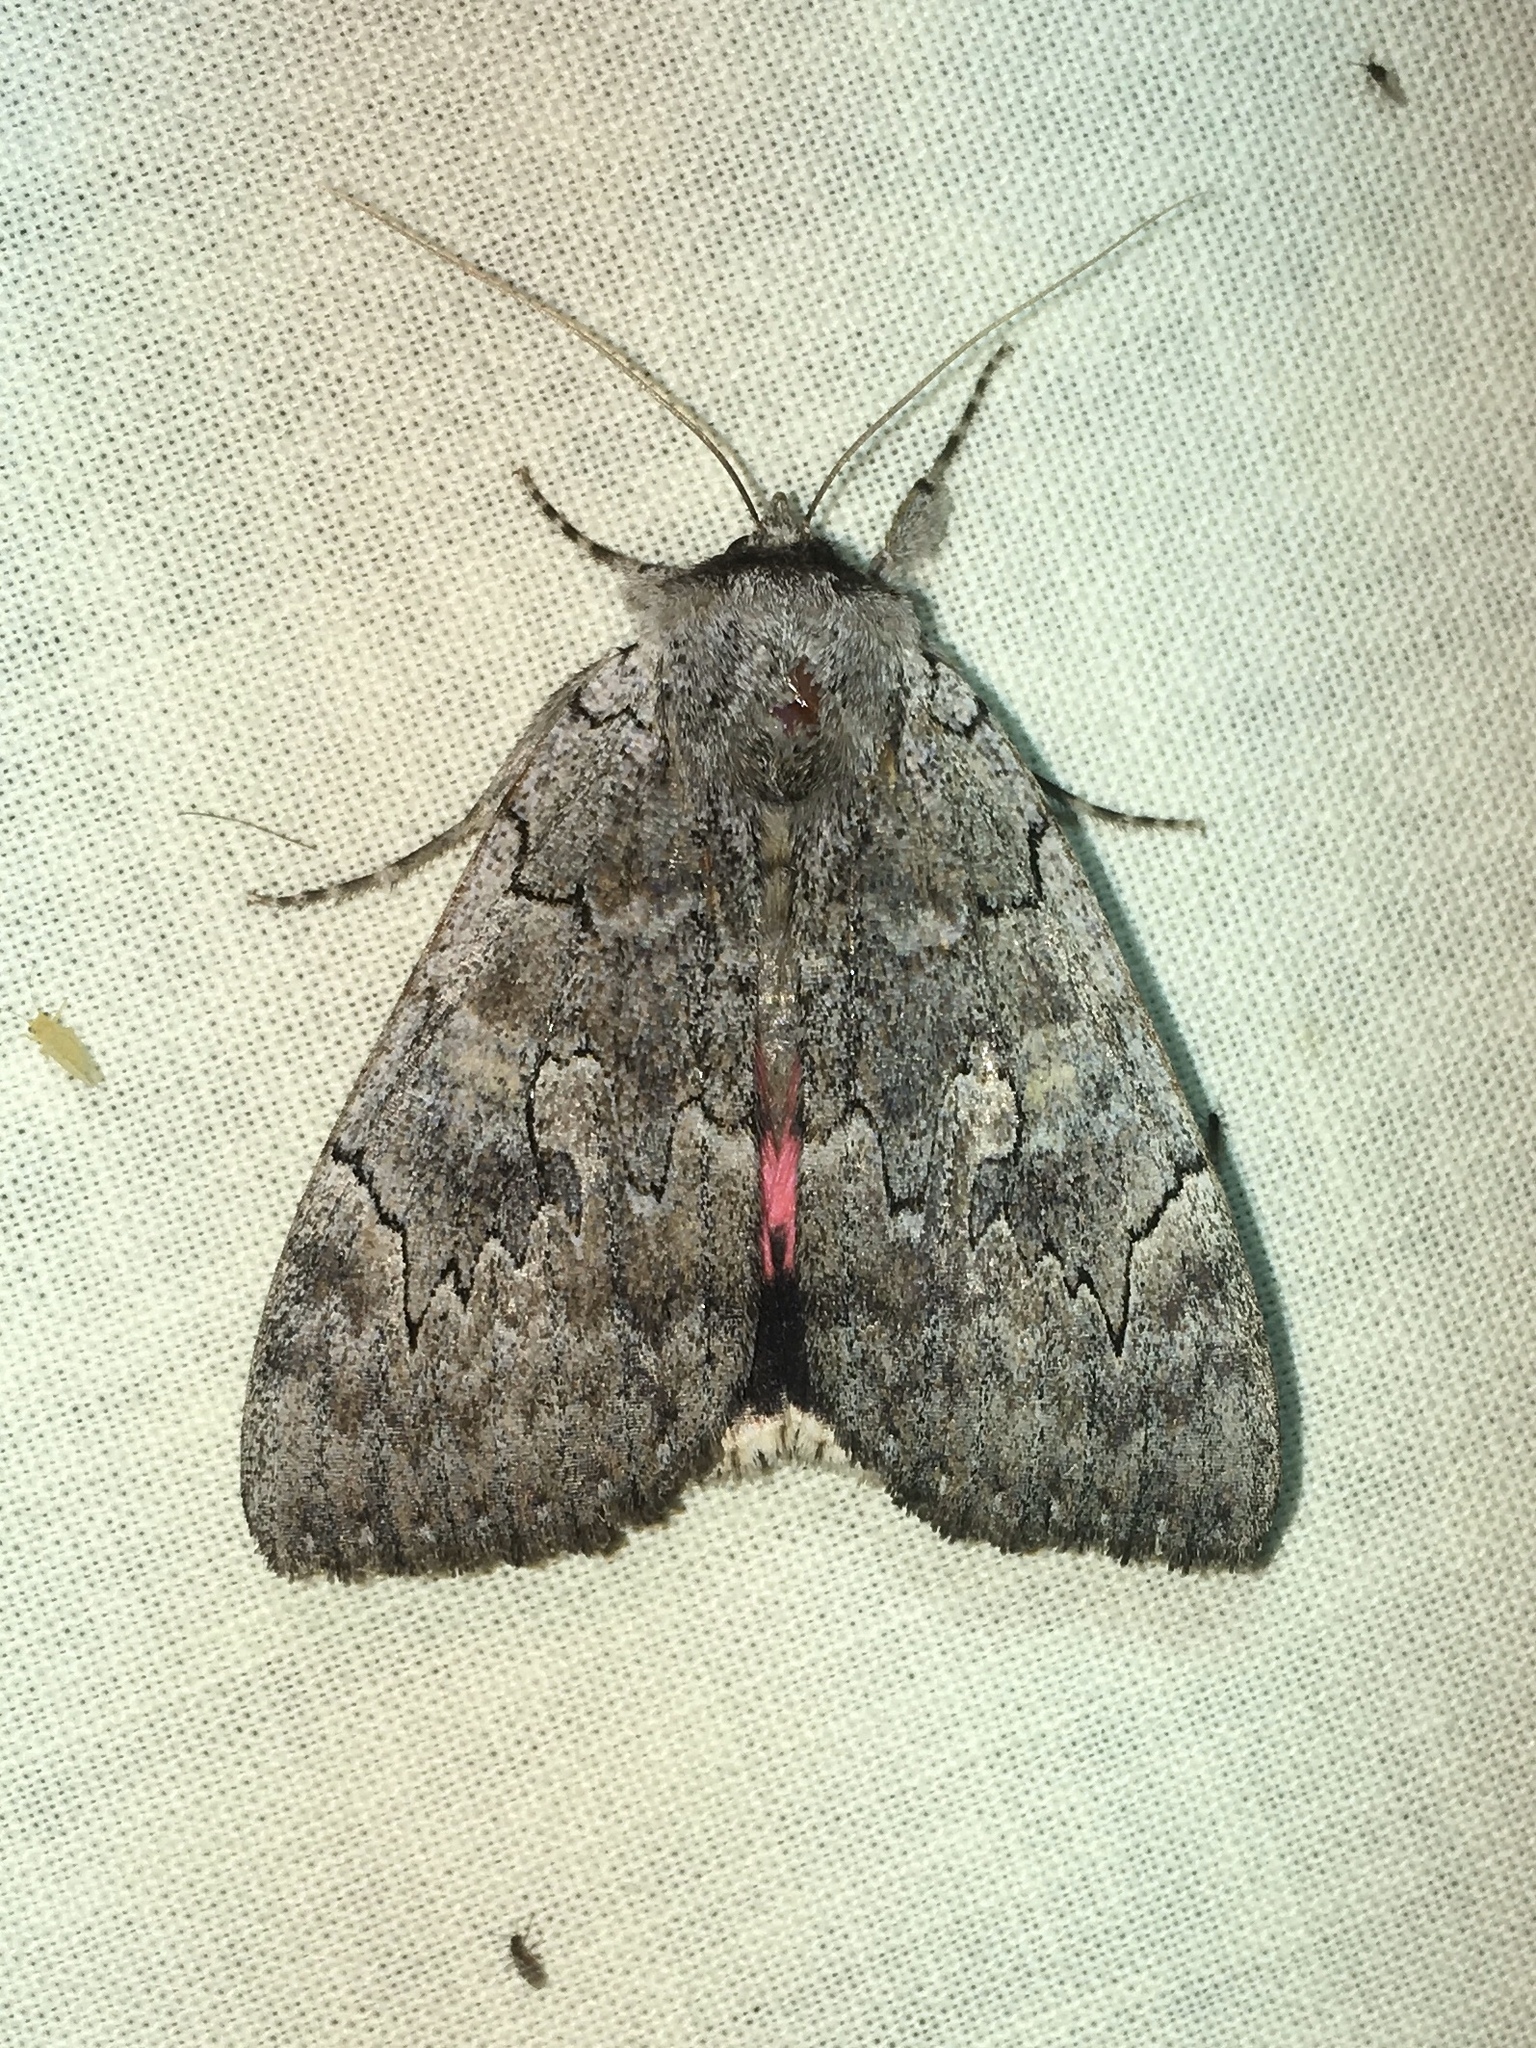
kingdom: Animalia
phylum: Arthropoda
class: Insecta
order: Lepidoptera
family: Erebidae
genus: Catocala
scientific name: Catocala concumbens
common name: Pink underwing
